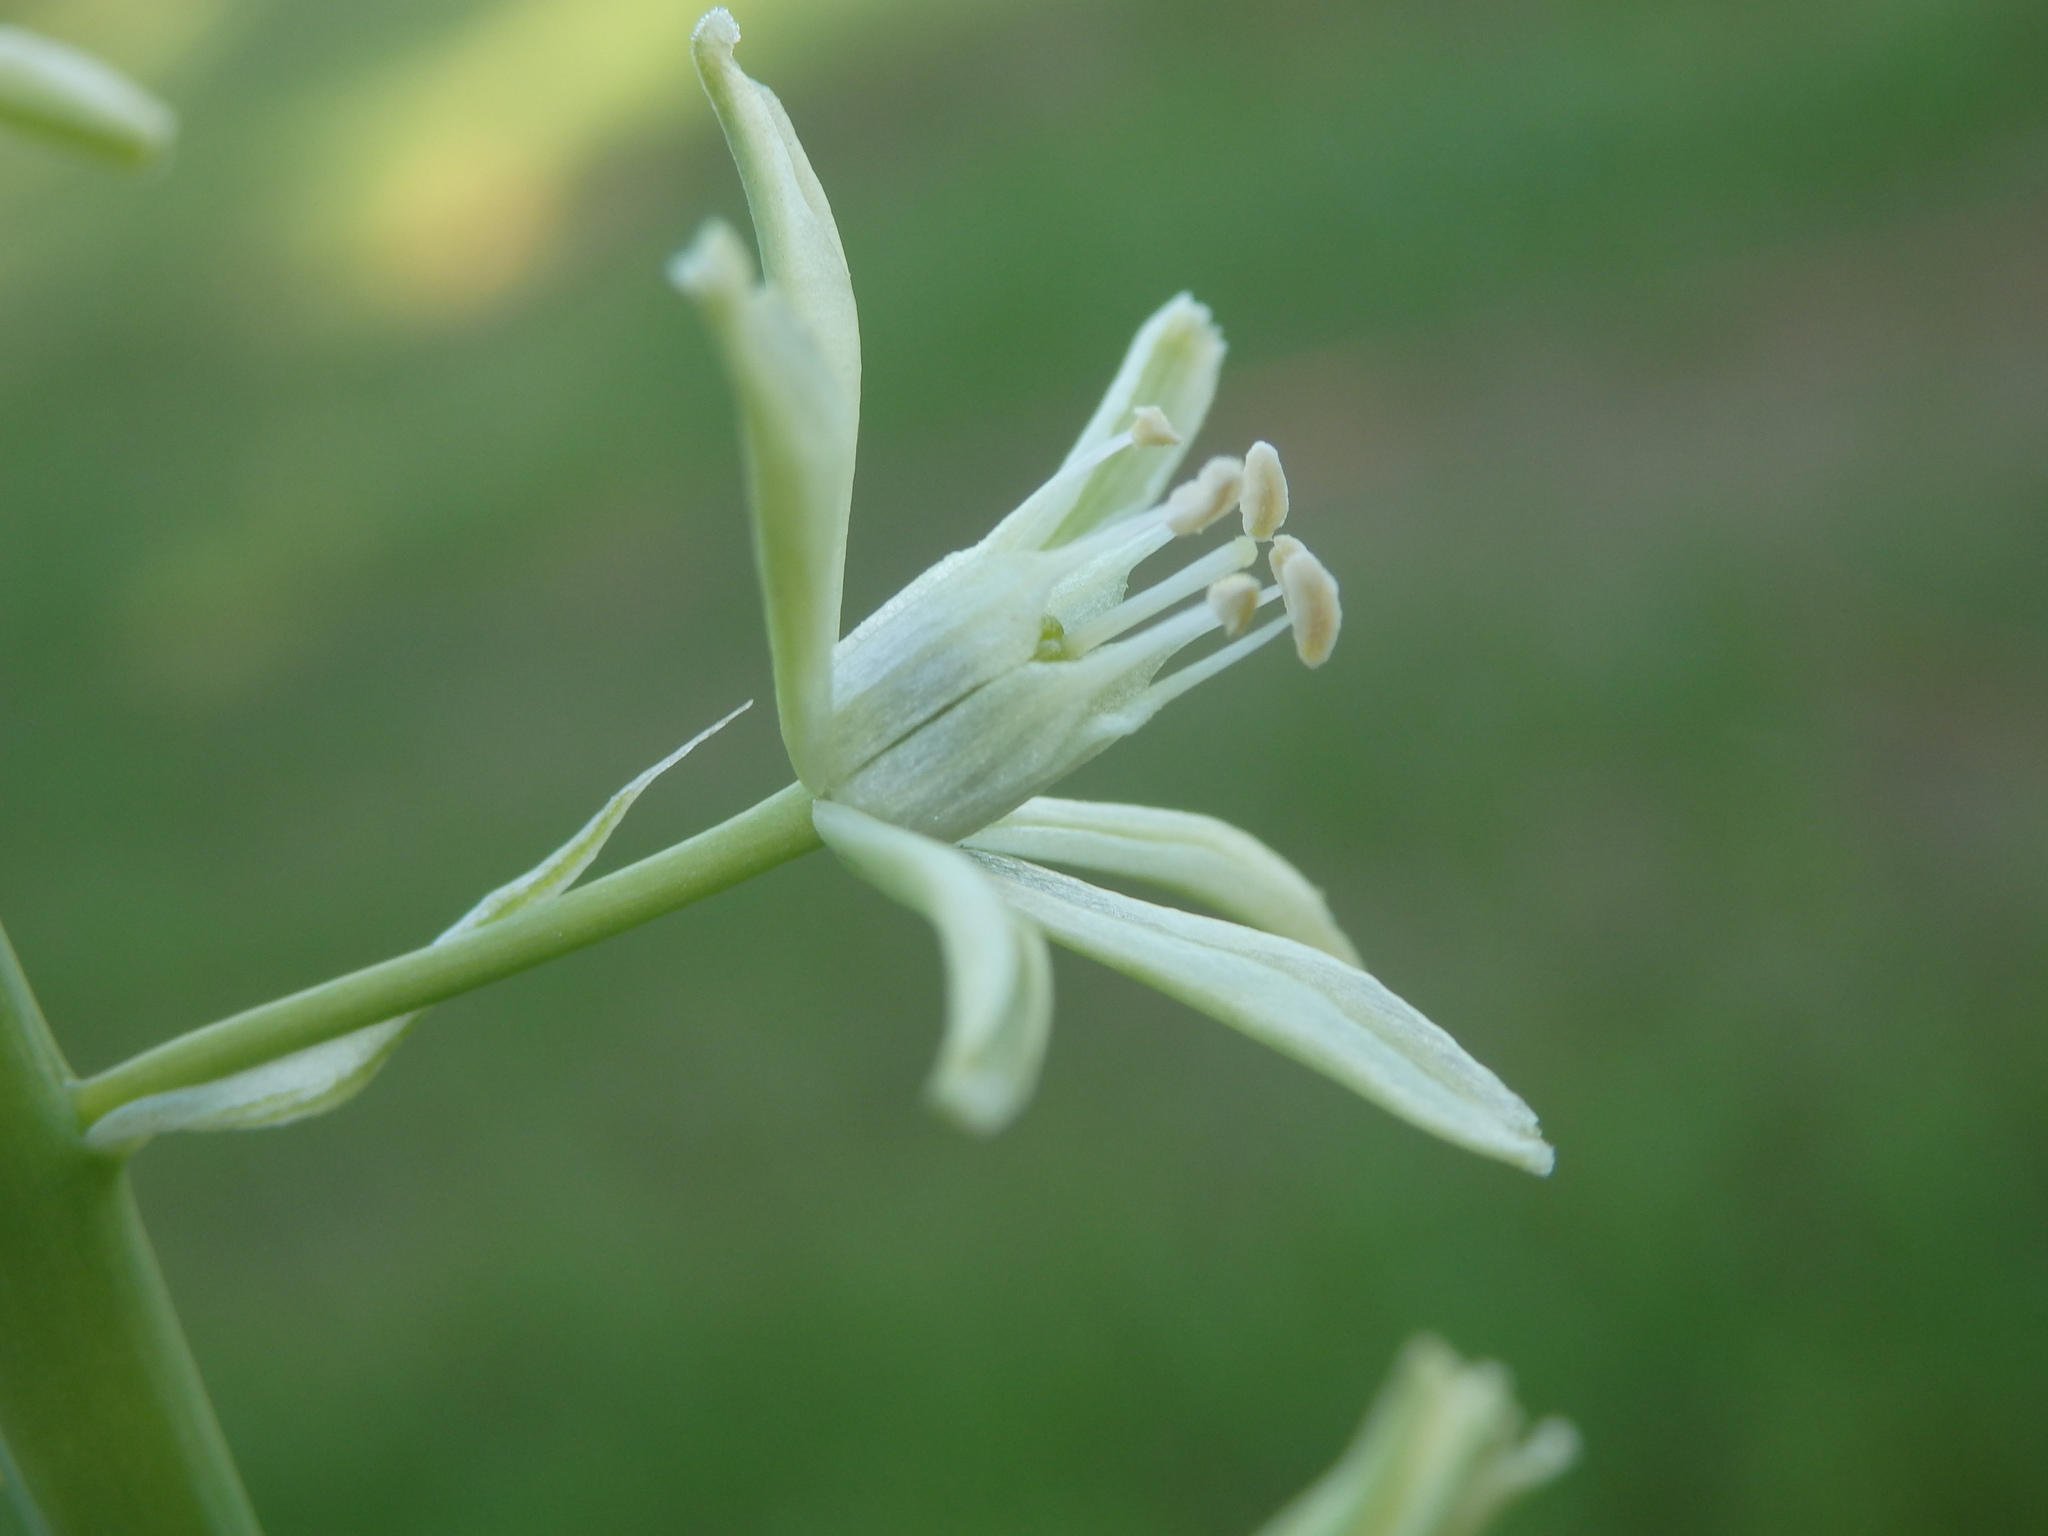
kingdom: Plantae
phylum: Tracheophyta
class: Liliopsida
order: Asparagales
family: Asparagaceae
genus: Ornithogalum
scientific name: Ornithogalum pyrenaicum
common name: Spiked star-of-bethlehem
